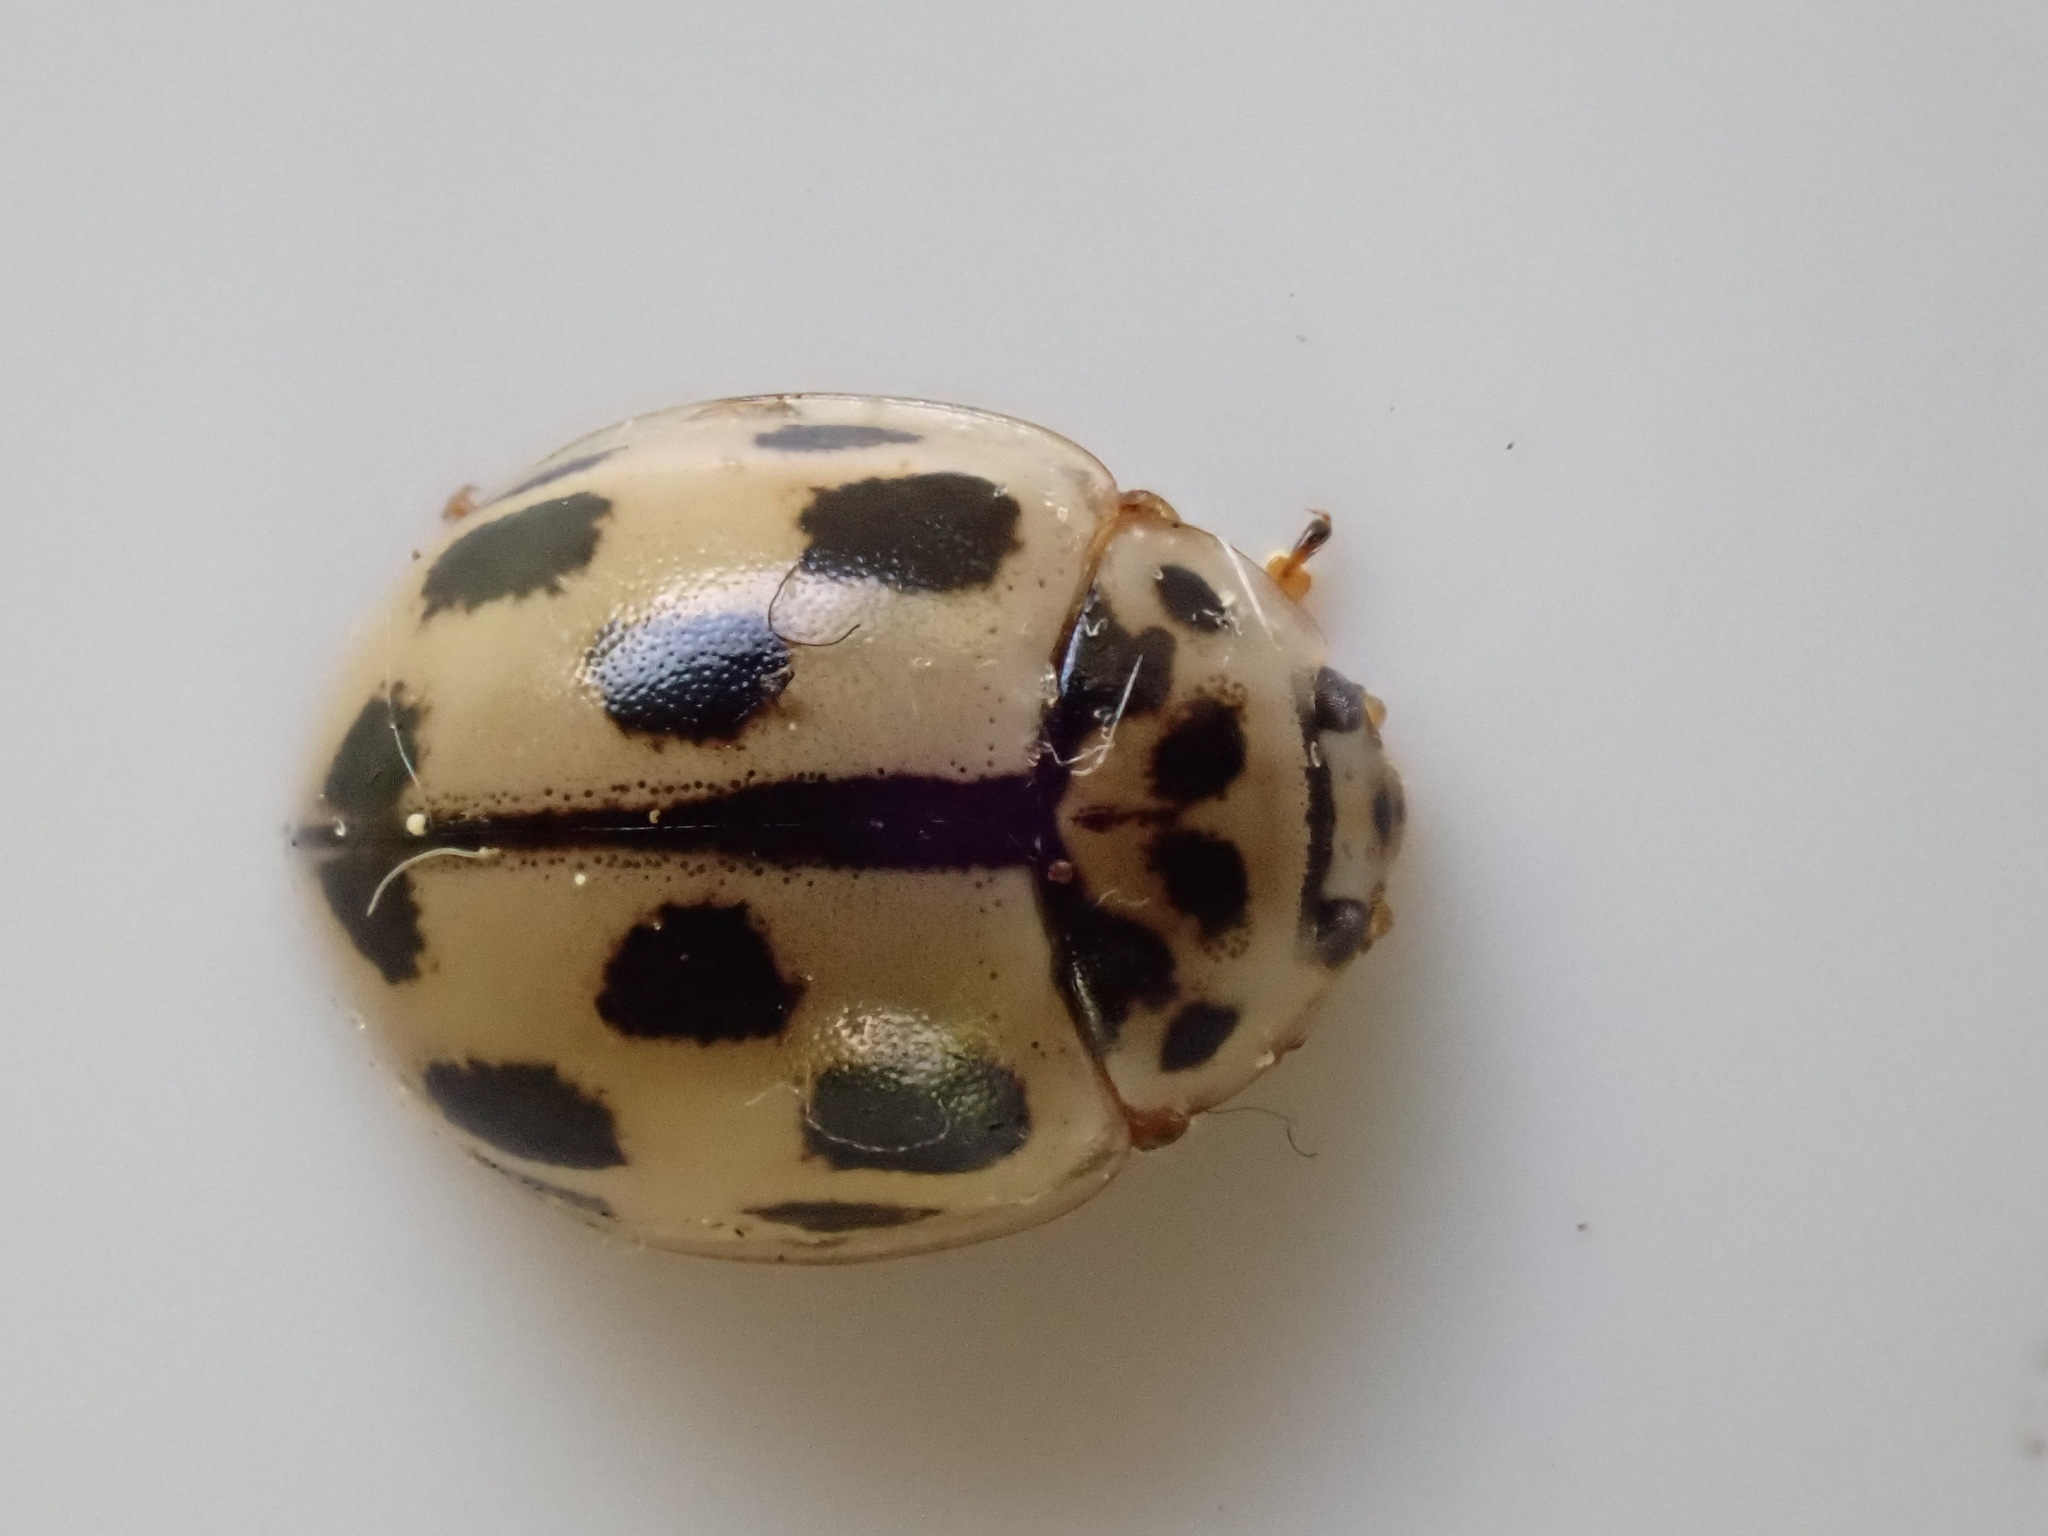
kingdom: Animalia
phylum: Arthropoda
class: Insecta
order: Coleoptera
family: Coccinellidae
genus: Propylaea
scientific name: Propylaea quatuordecimpunctata
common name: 14-spotted ladybird beetle
